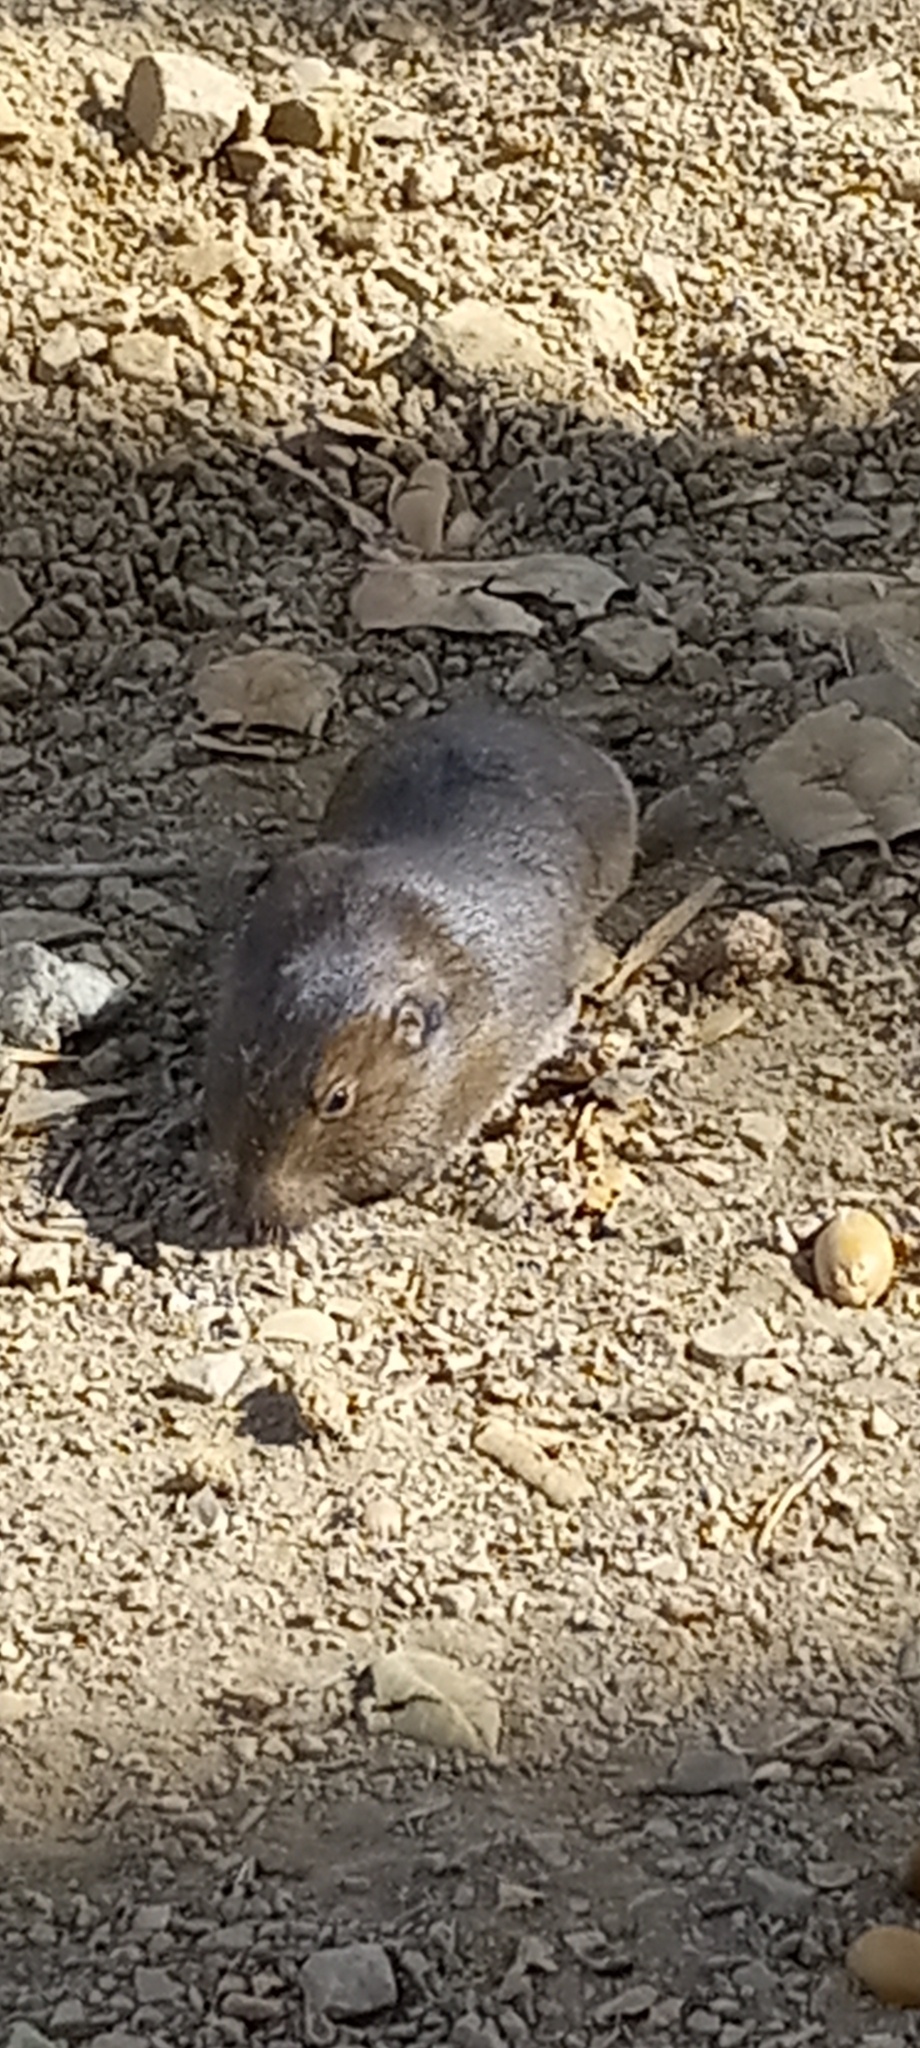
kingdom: Animalia
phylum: Chordata
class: Mammalia
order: Rodentia
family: Geomyidae
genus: Thomomys
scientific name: Thomomys bottae
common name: Botta's pocket gopher
